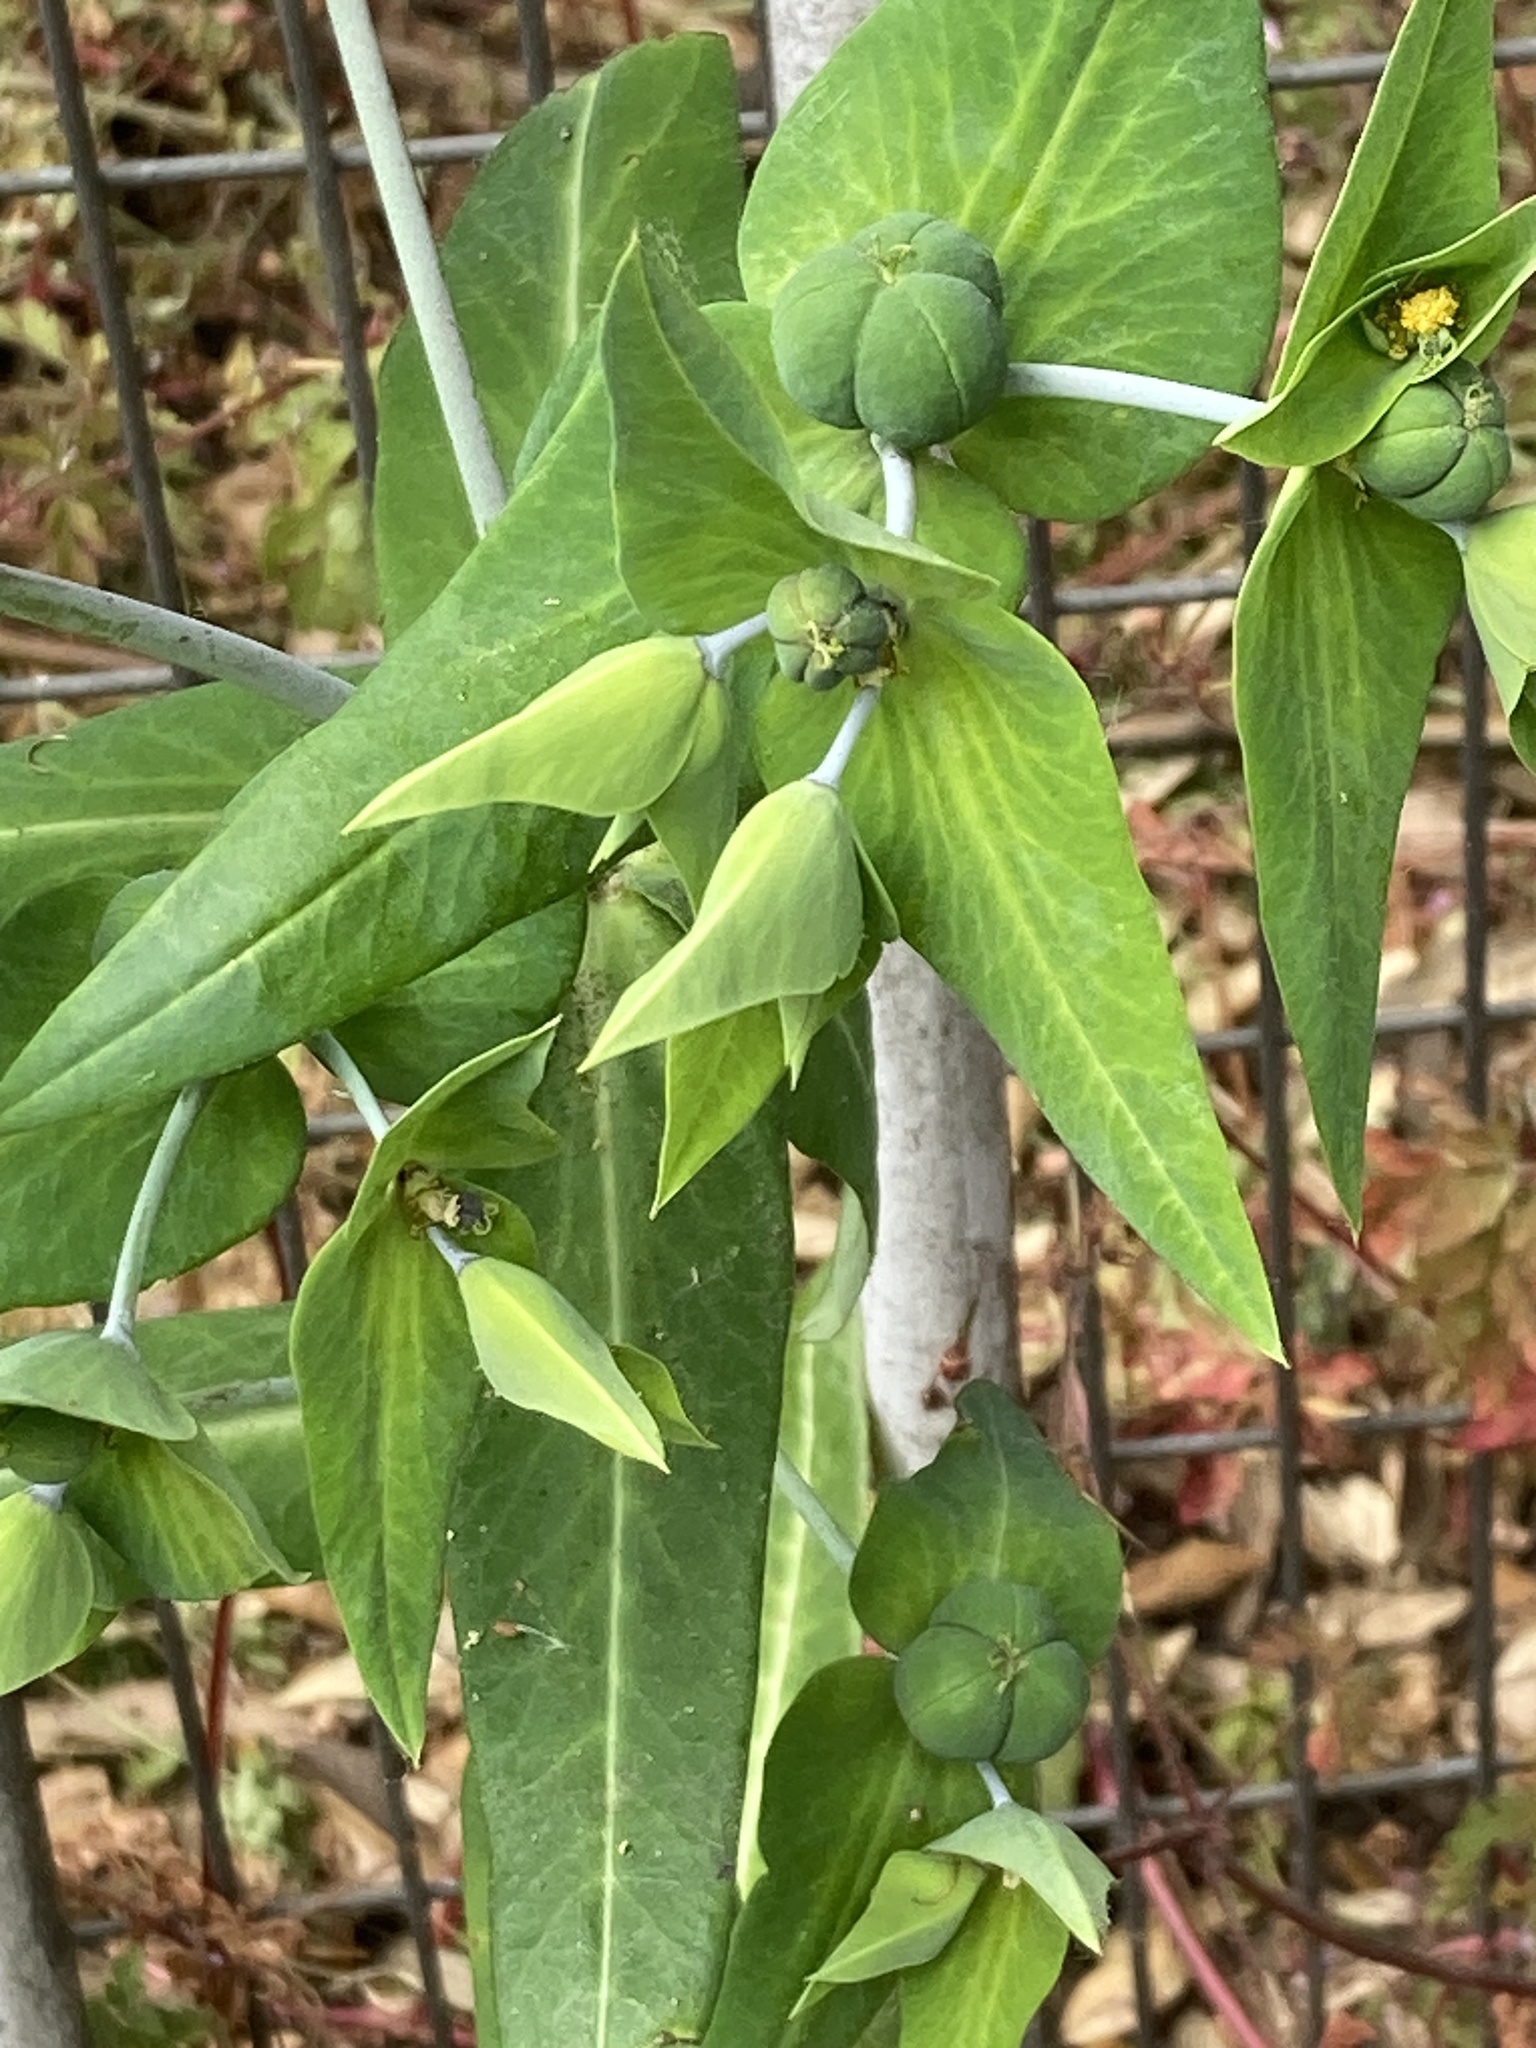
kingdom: Plantae
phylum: Tracheophyta
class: Magnoliopsida
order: Caryophyllales
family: Amaranthaceae
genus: Chenopodium
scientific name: Chenopodium album
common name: Fat-hen
